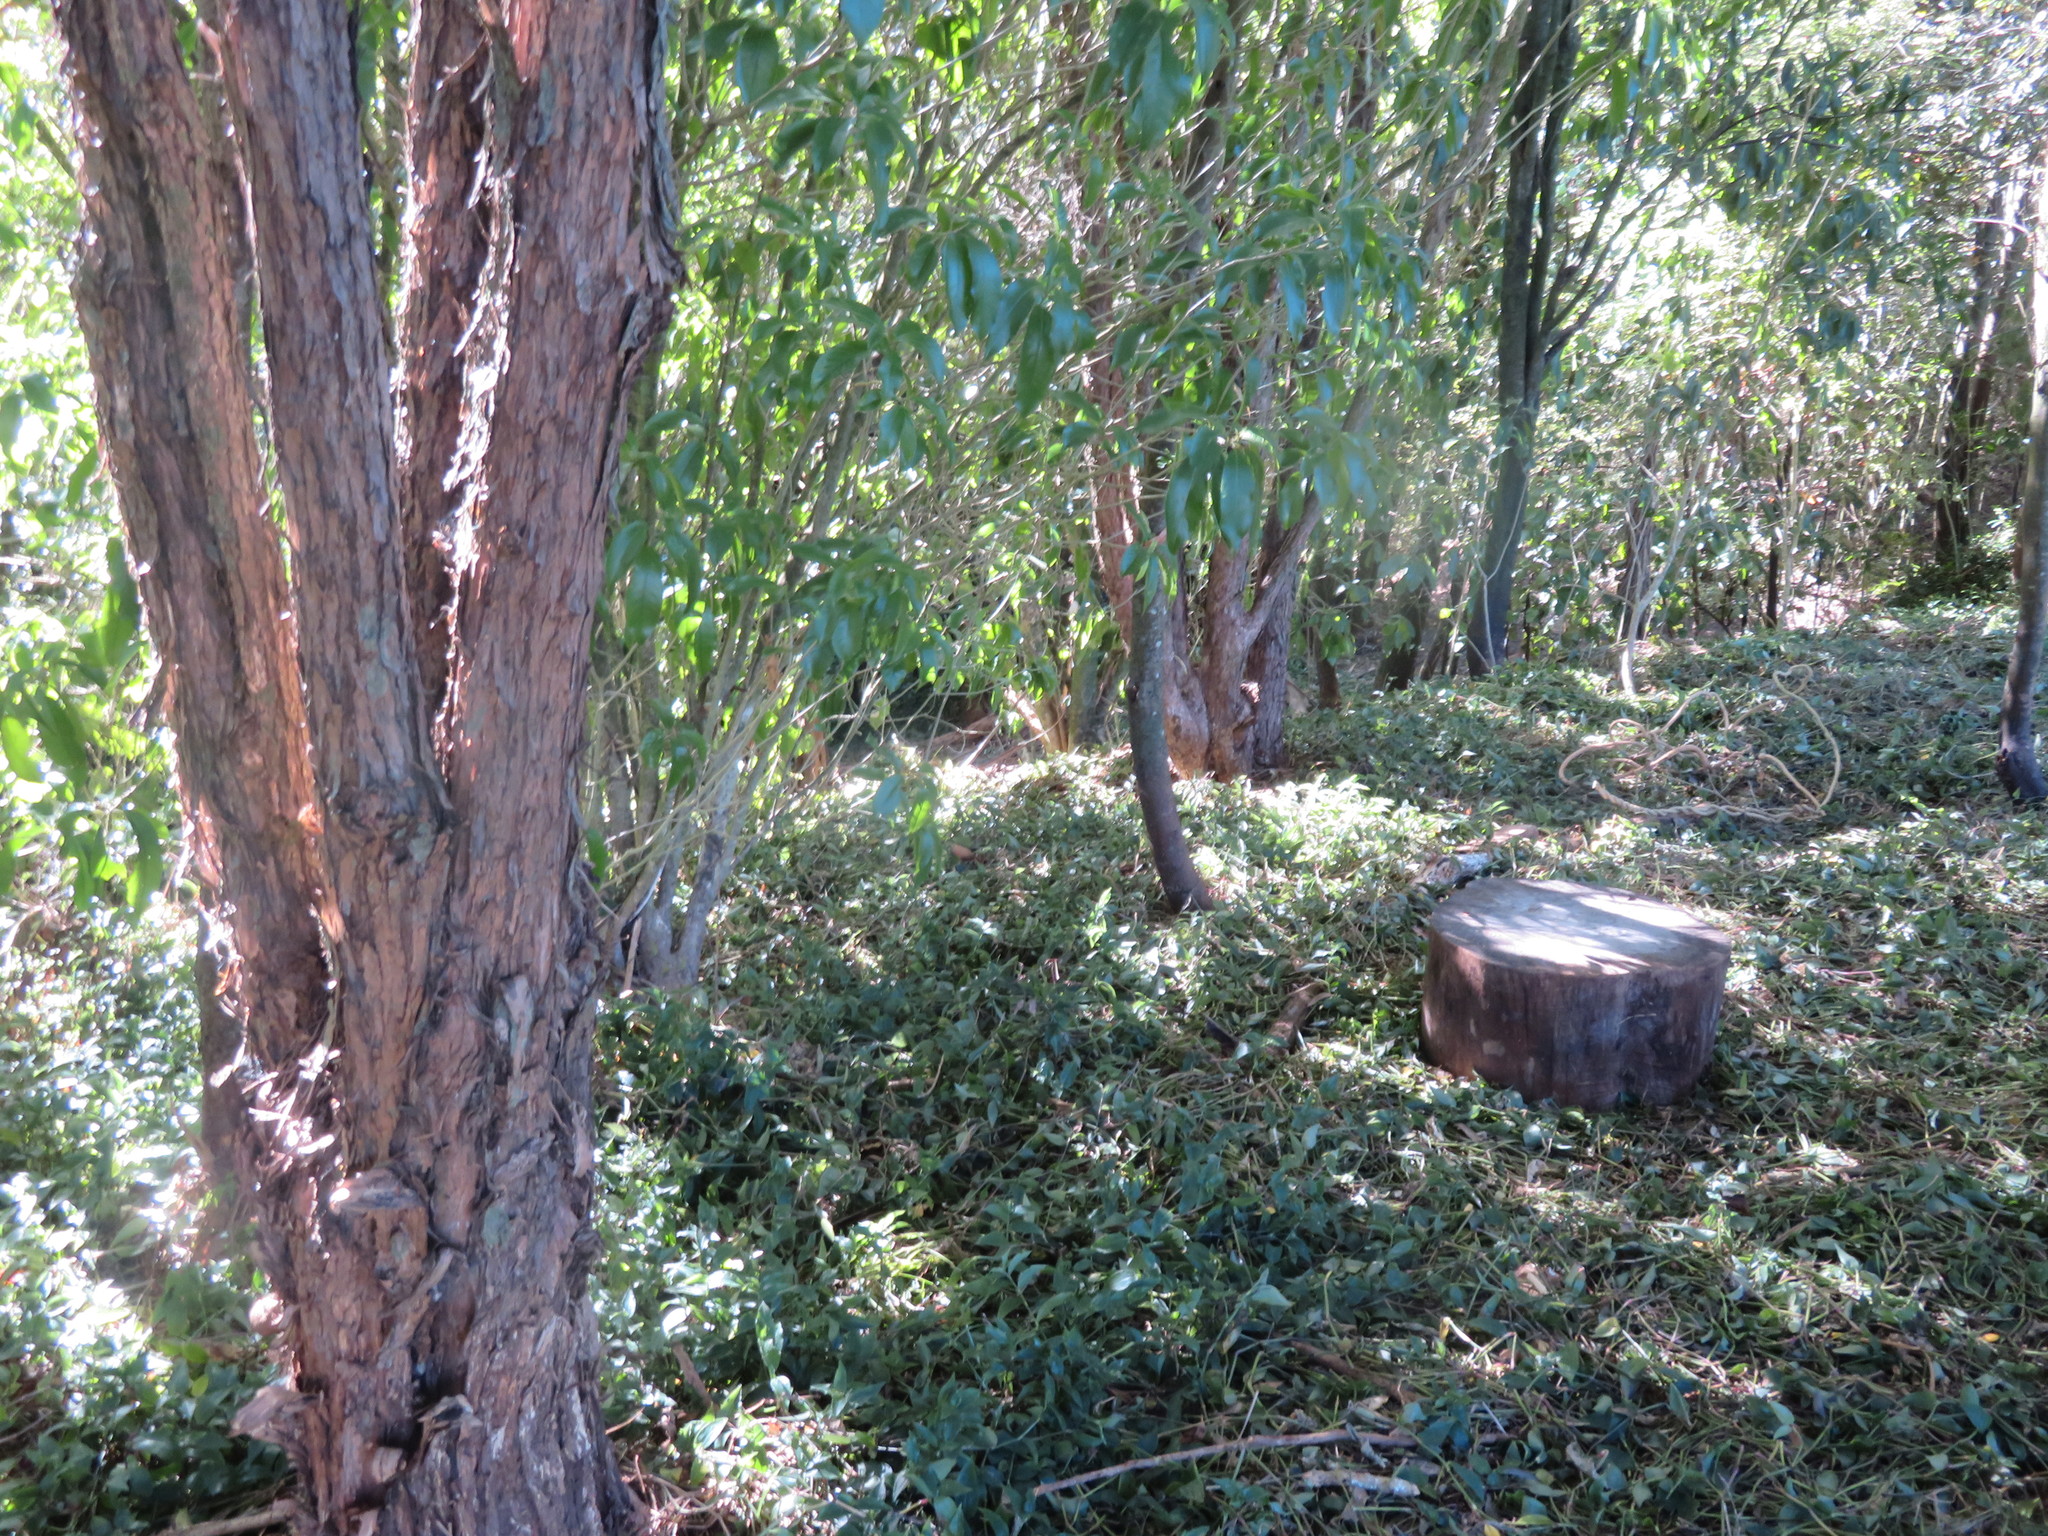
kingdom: Plantae
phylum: Tracheophyta
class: Magnoliopsida
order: Malpighiales
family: Violaceae
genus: Melicytus
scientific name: Melicytus ramiflorus
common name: Mahoe
